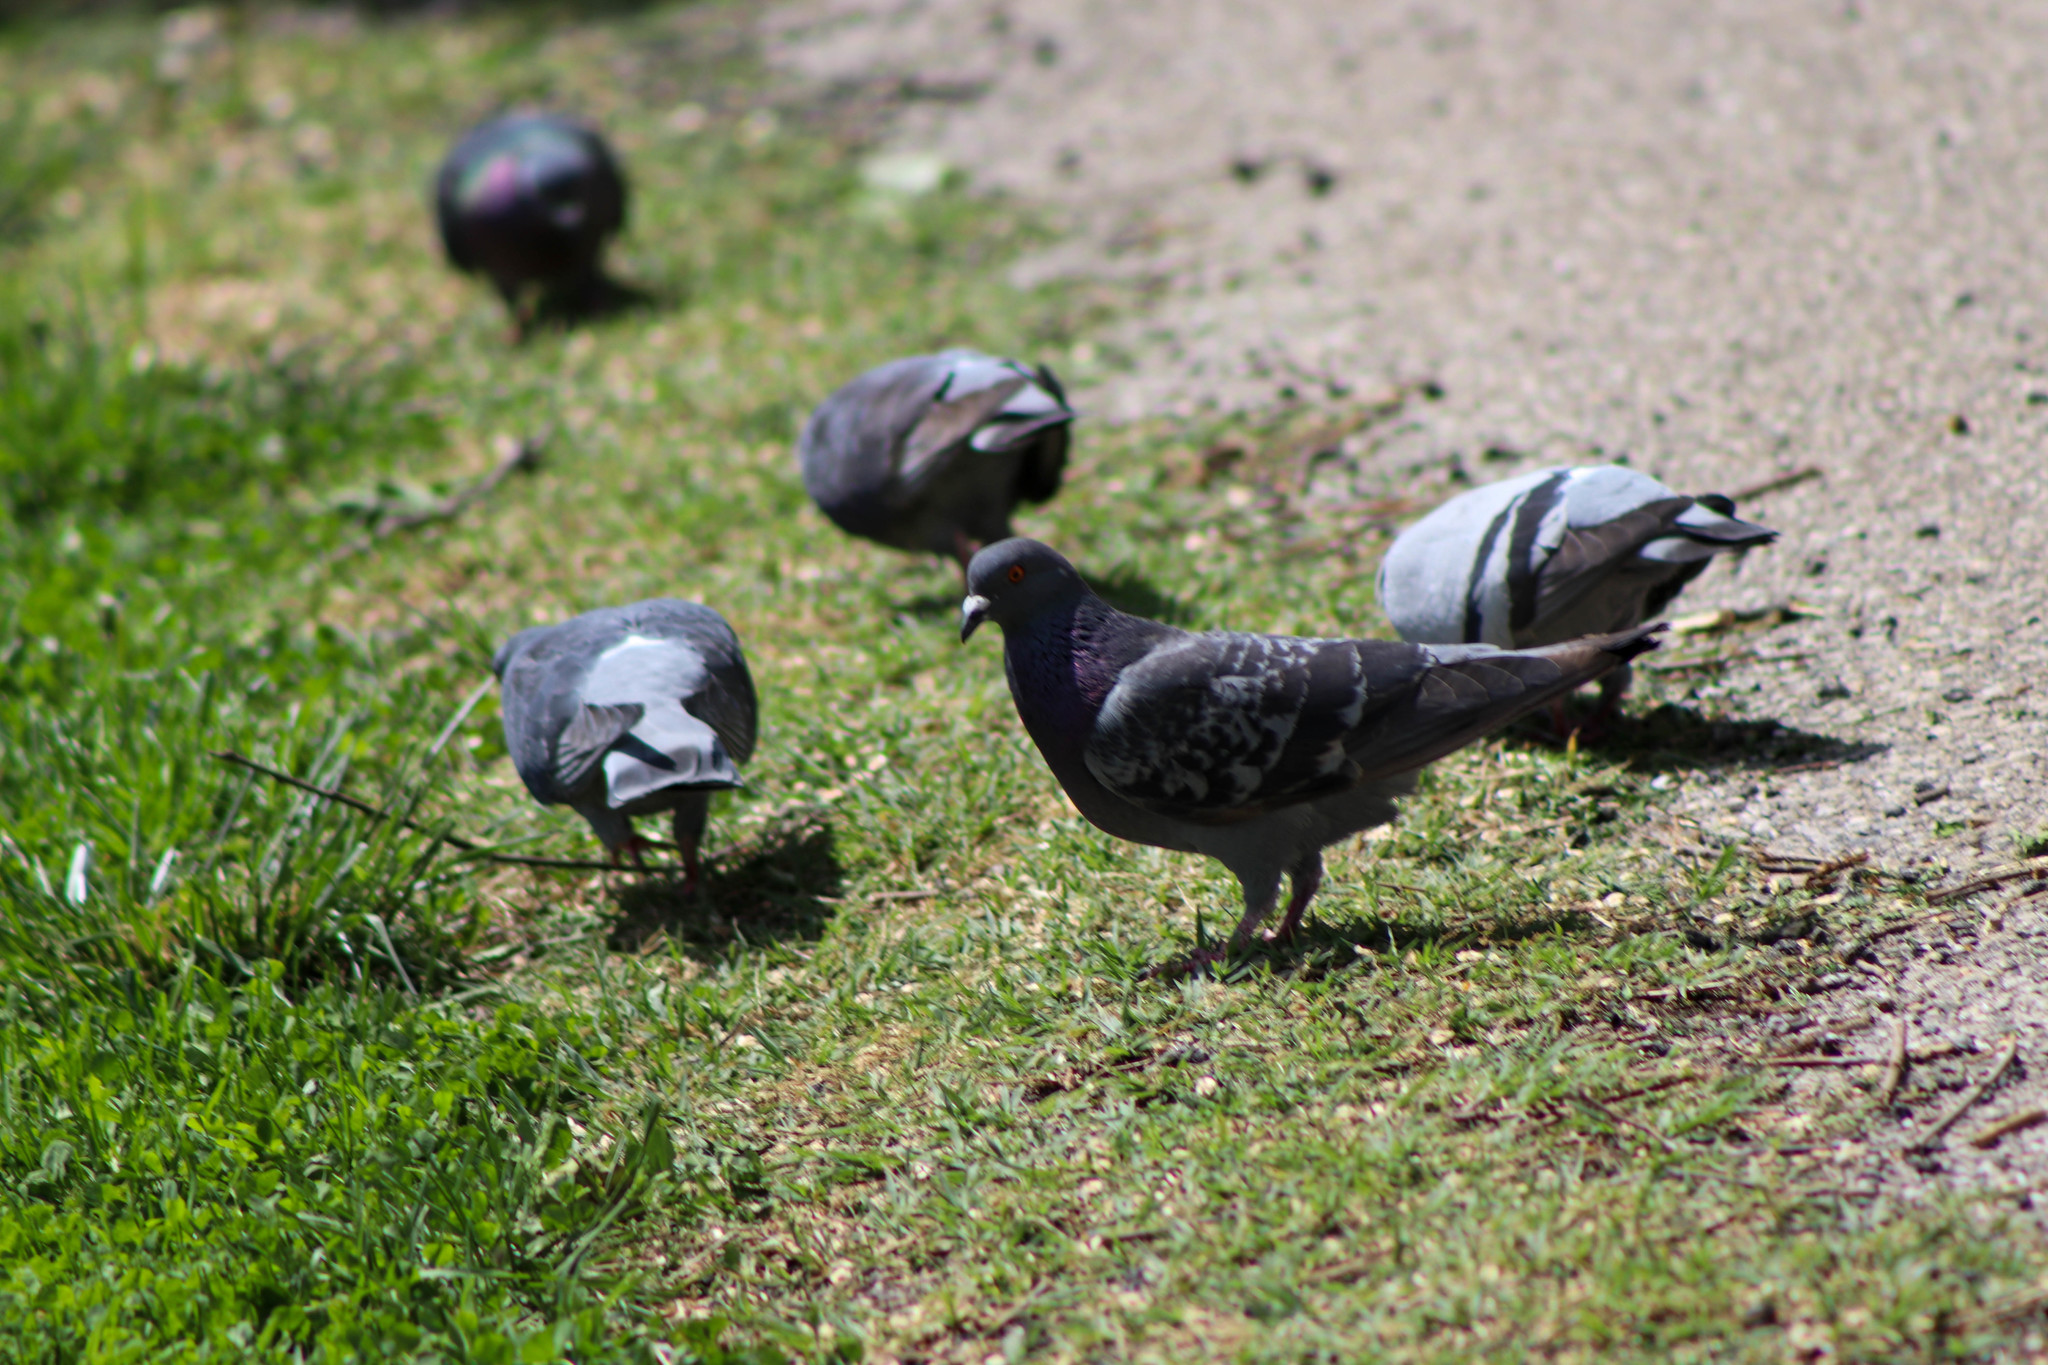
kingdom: Animalia
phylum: Chordata
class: Aves
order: Columbiformes
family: Columbidae
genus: Columba
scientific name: Columba livia
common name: Rock pigeon
